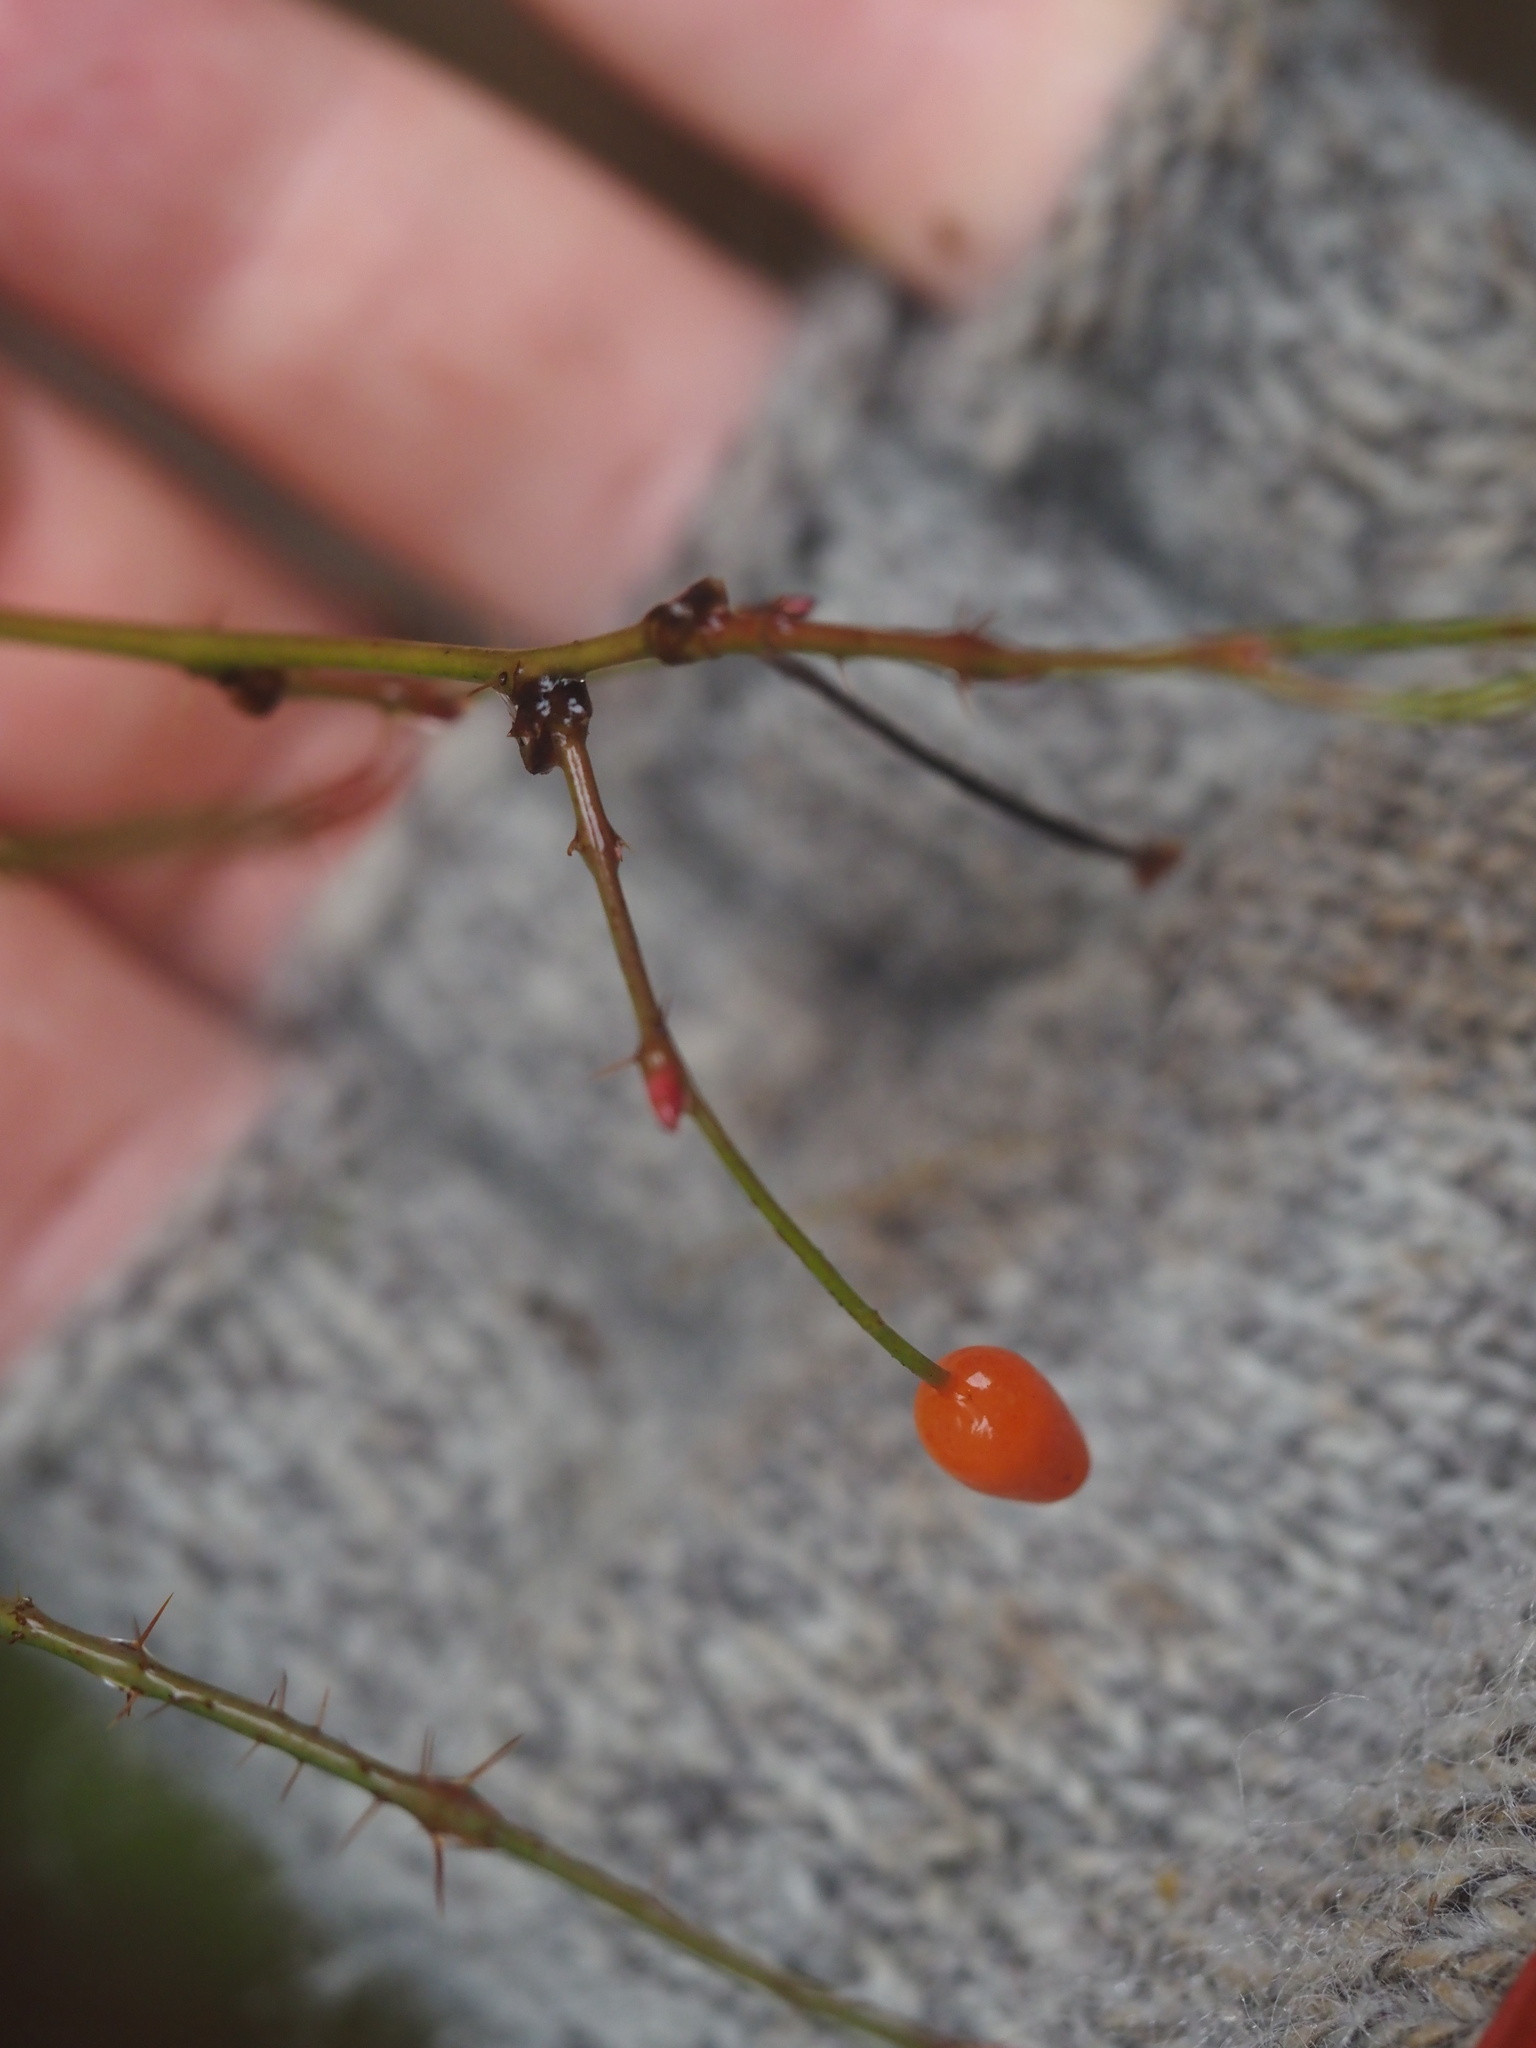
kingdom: Plantae
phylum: Tracheophyta
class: Magnoliopsida
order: Rosales
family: Rosaceae
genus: Rosa
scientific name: Rosa gymnocarpa
